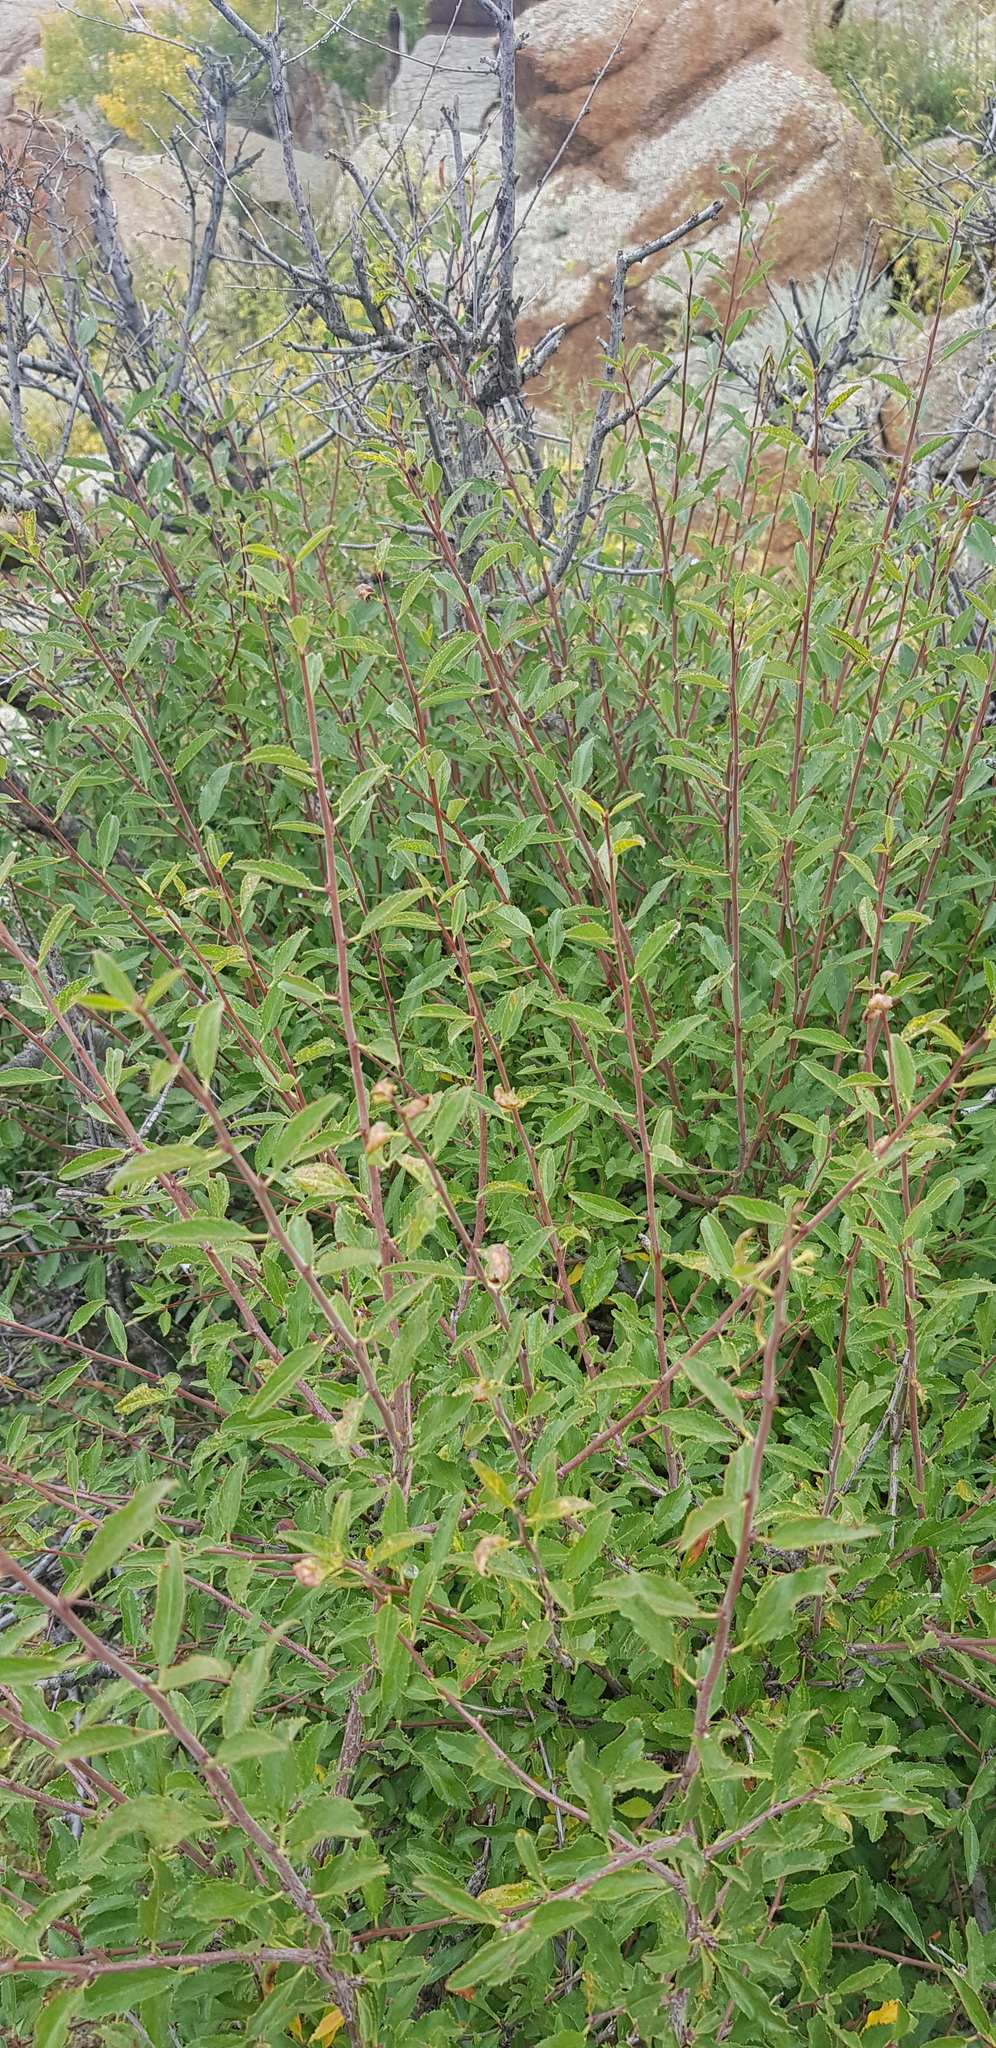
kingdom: Plantae
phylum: Tracheophyta
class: Magnoliopsida
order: Rosales
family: Rosaceae
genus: Prunus
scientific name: Prunus pedunculata
